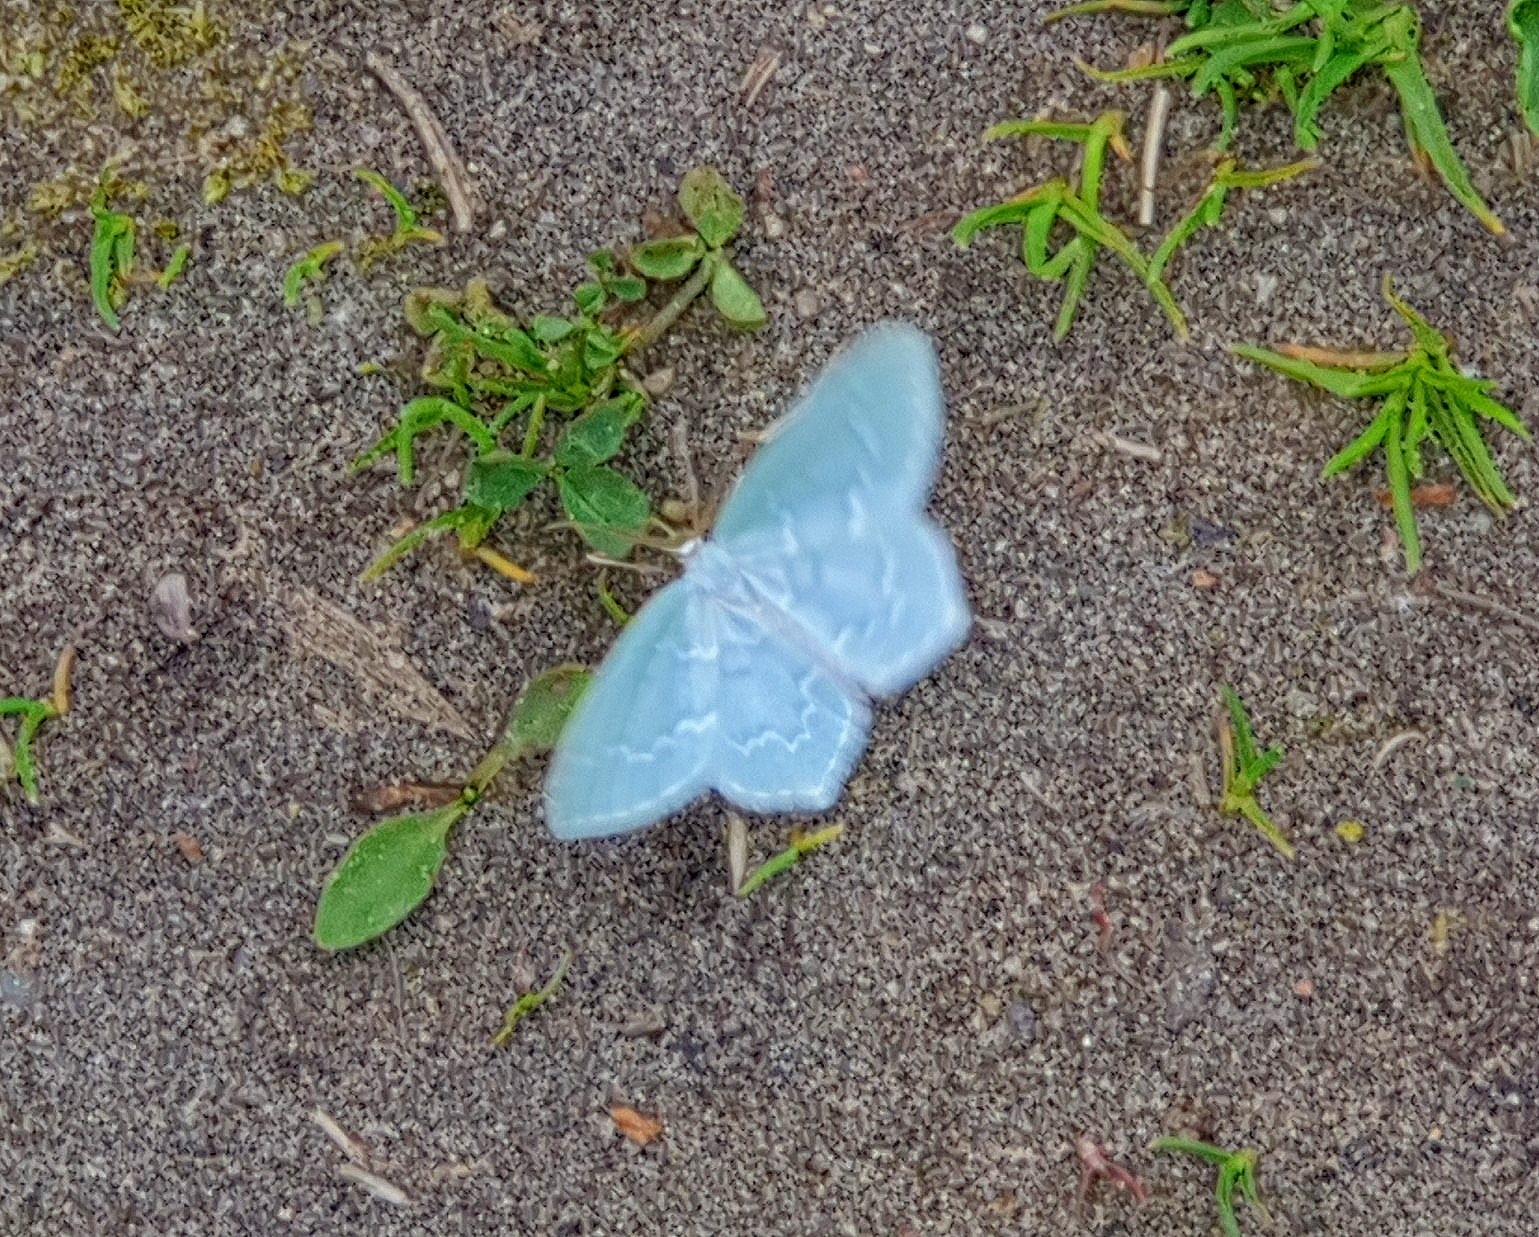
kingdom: Animalia
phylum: Arthropoda
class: Insecta
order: Lepidoptera
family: Geometridae
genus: Jodis
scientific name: Jodis putata
